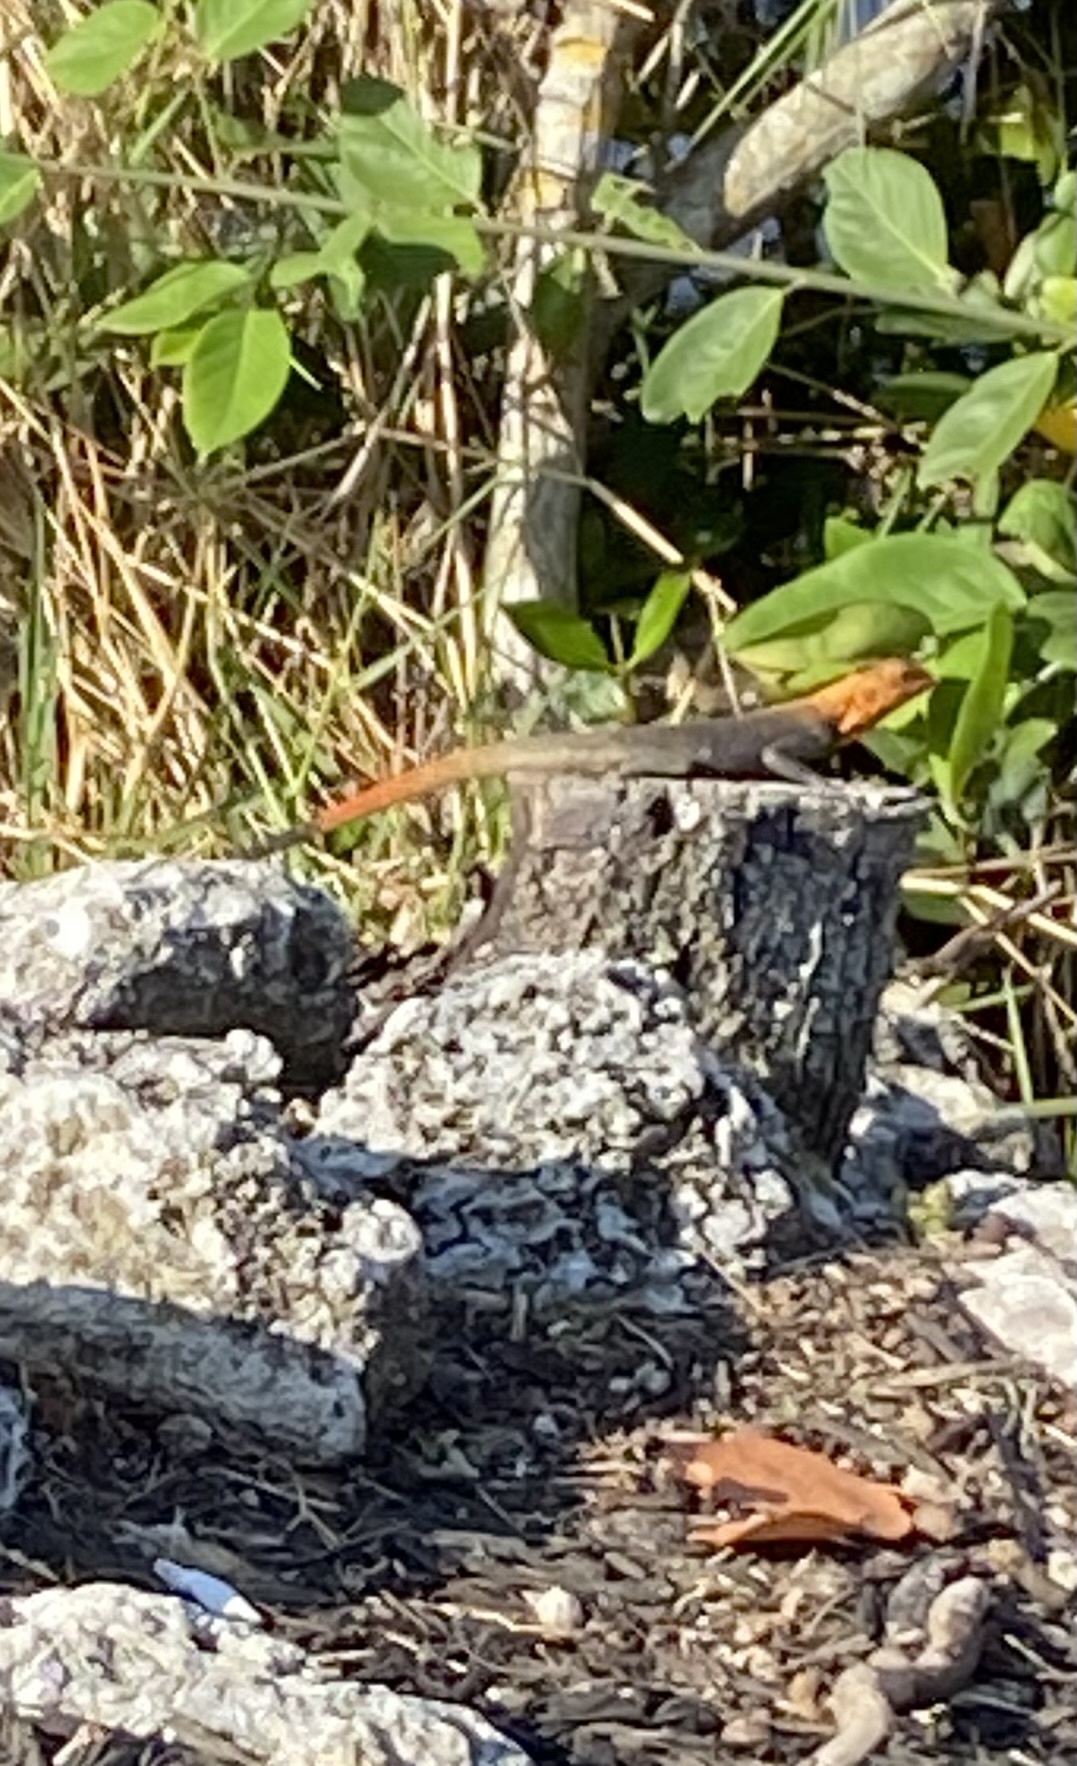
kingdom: Animalia
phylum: Chordata
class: Squamata
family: Agamidae
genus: Agama
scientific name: Agama picticauda
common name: Red-headed agama
